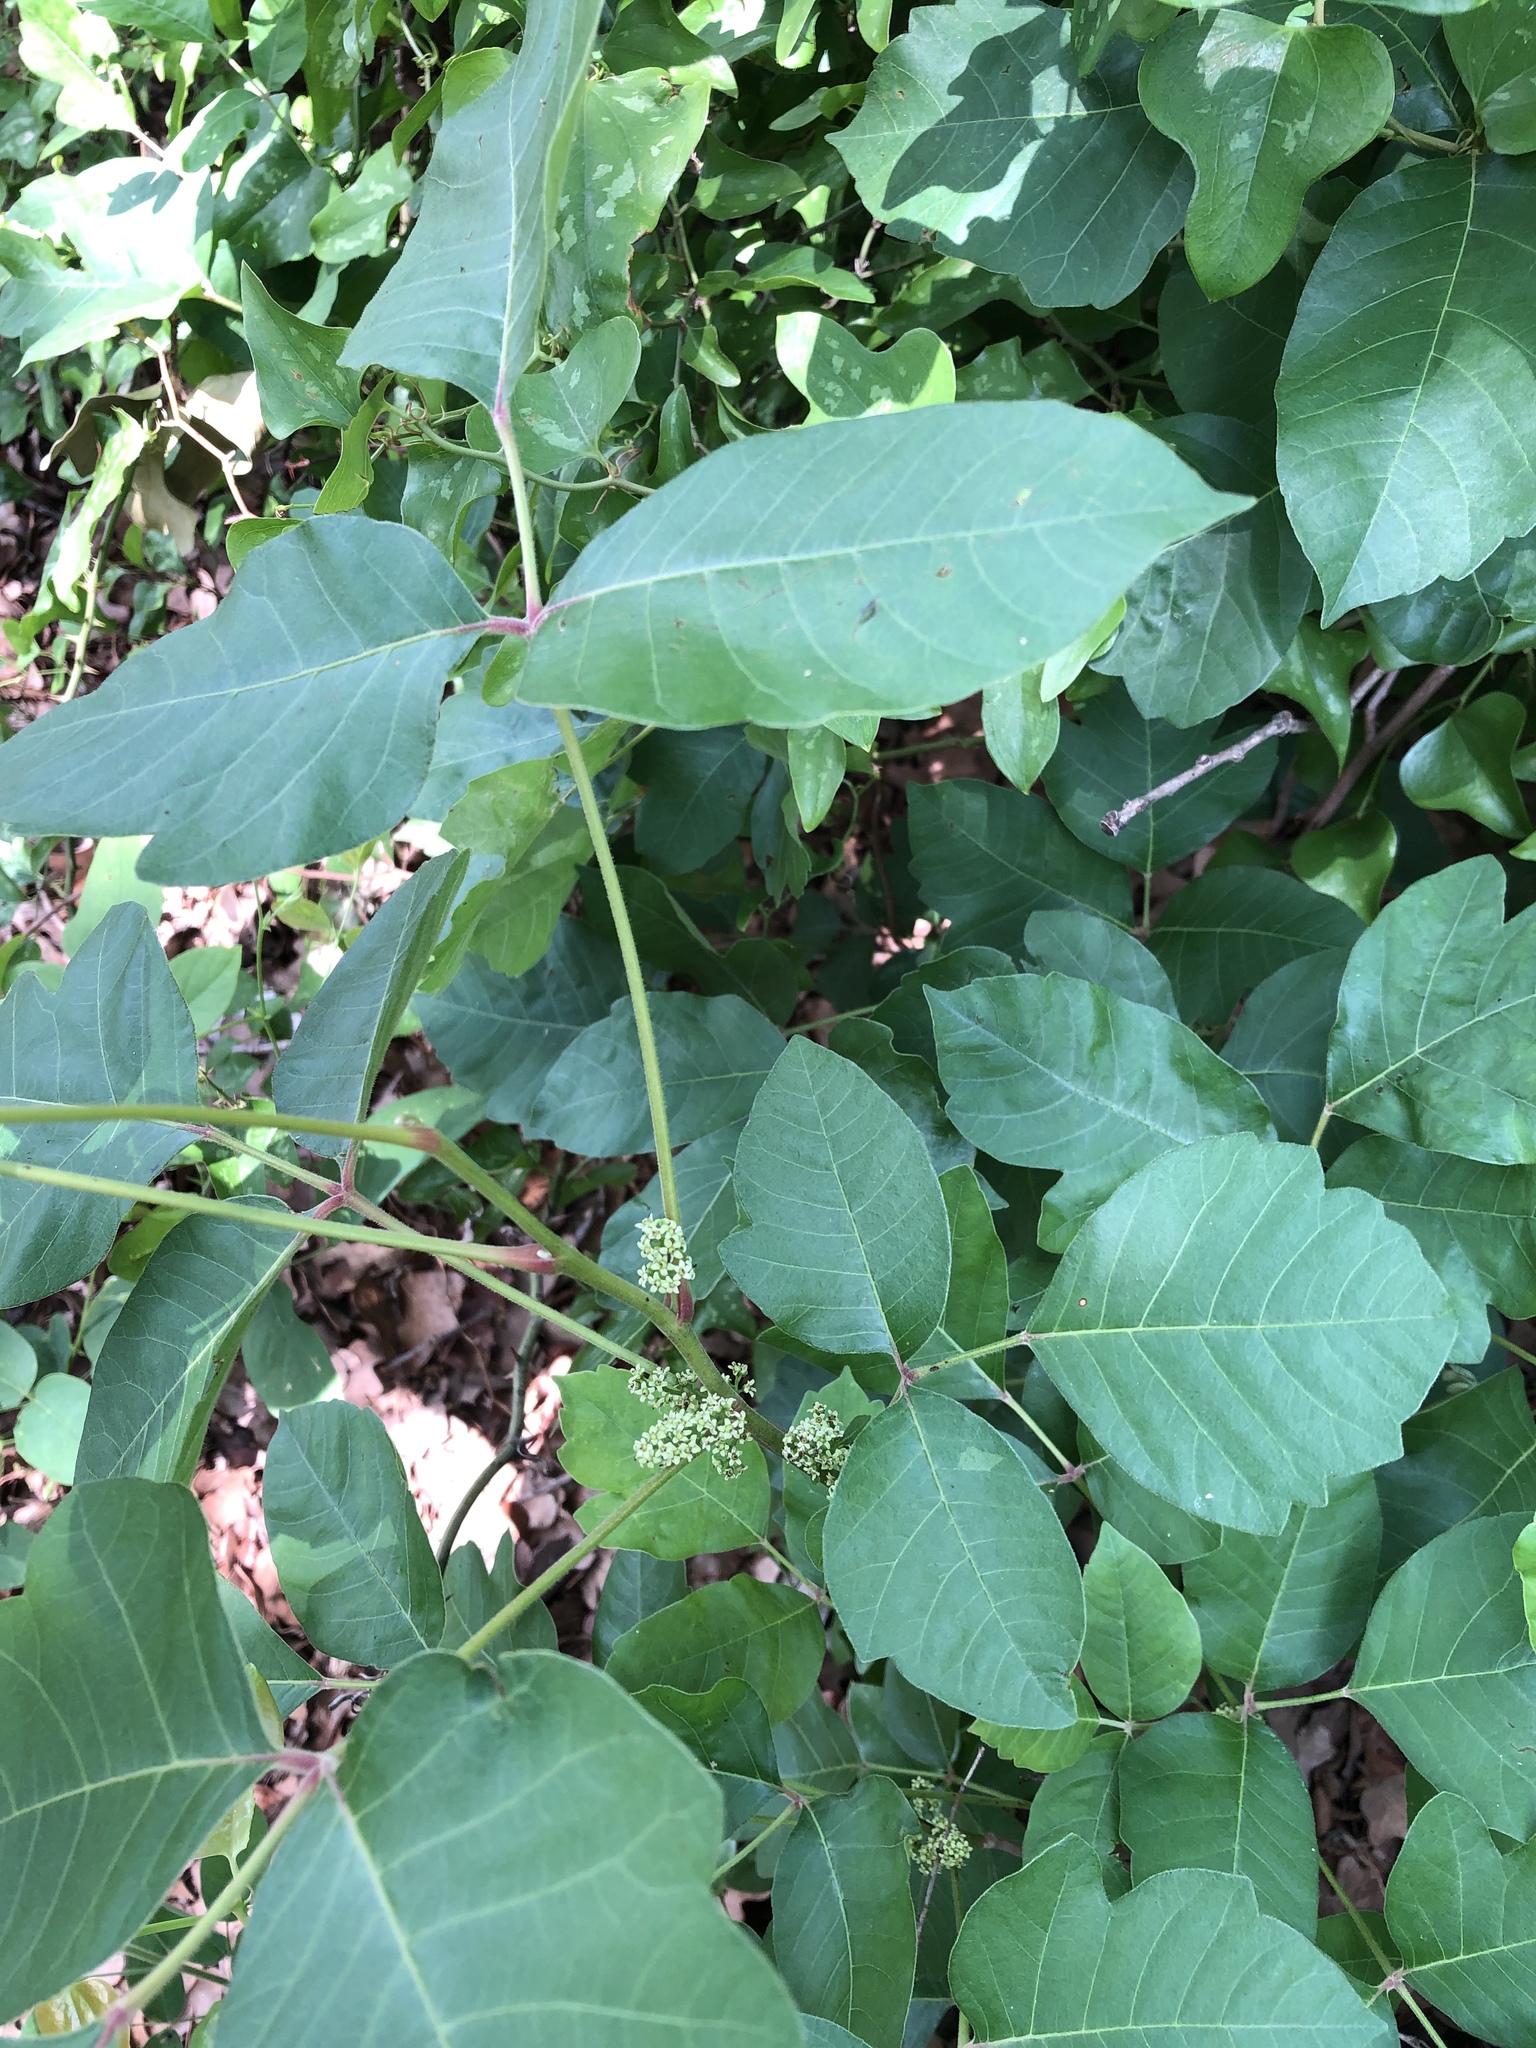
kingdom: Plantae
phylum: Tracheophyta
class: Magnoliopsida
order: Sapindales
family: Anacardiaceae
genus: Toxicodendron
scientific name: Toxicodendron radicans
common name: Poison ivy
